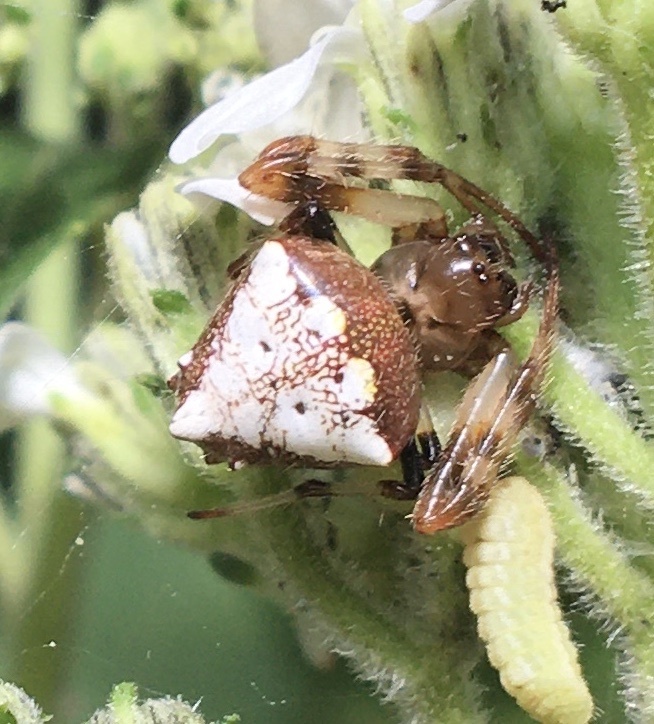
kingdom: Animalia
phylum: Arthropoda
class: Arachnida
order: Araneae
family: Araneidae
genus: Verrucosa
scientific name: Verrucosa arenata
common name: Orb weavers
